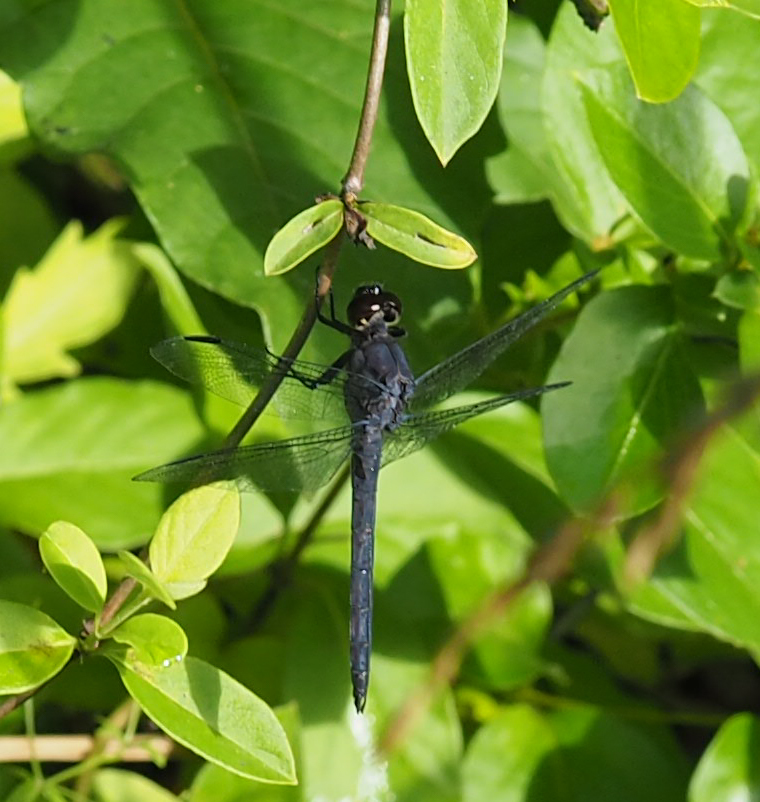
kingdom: Animalia
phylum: Arthropoda
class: Insecta
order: Odonata
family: Libellulidae
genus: Libellula
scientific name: Libellula incesta
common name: Slaty skimmer
